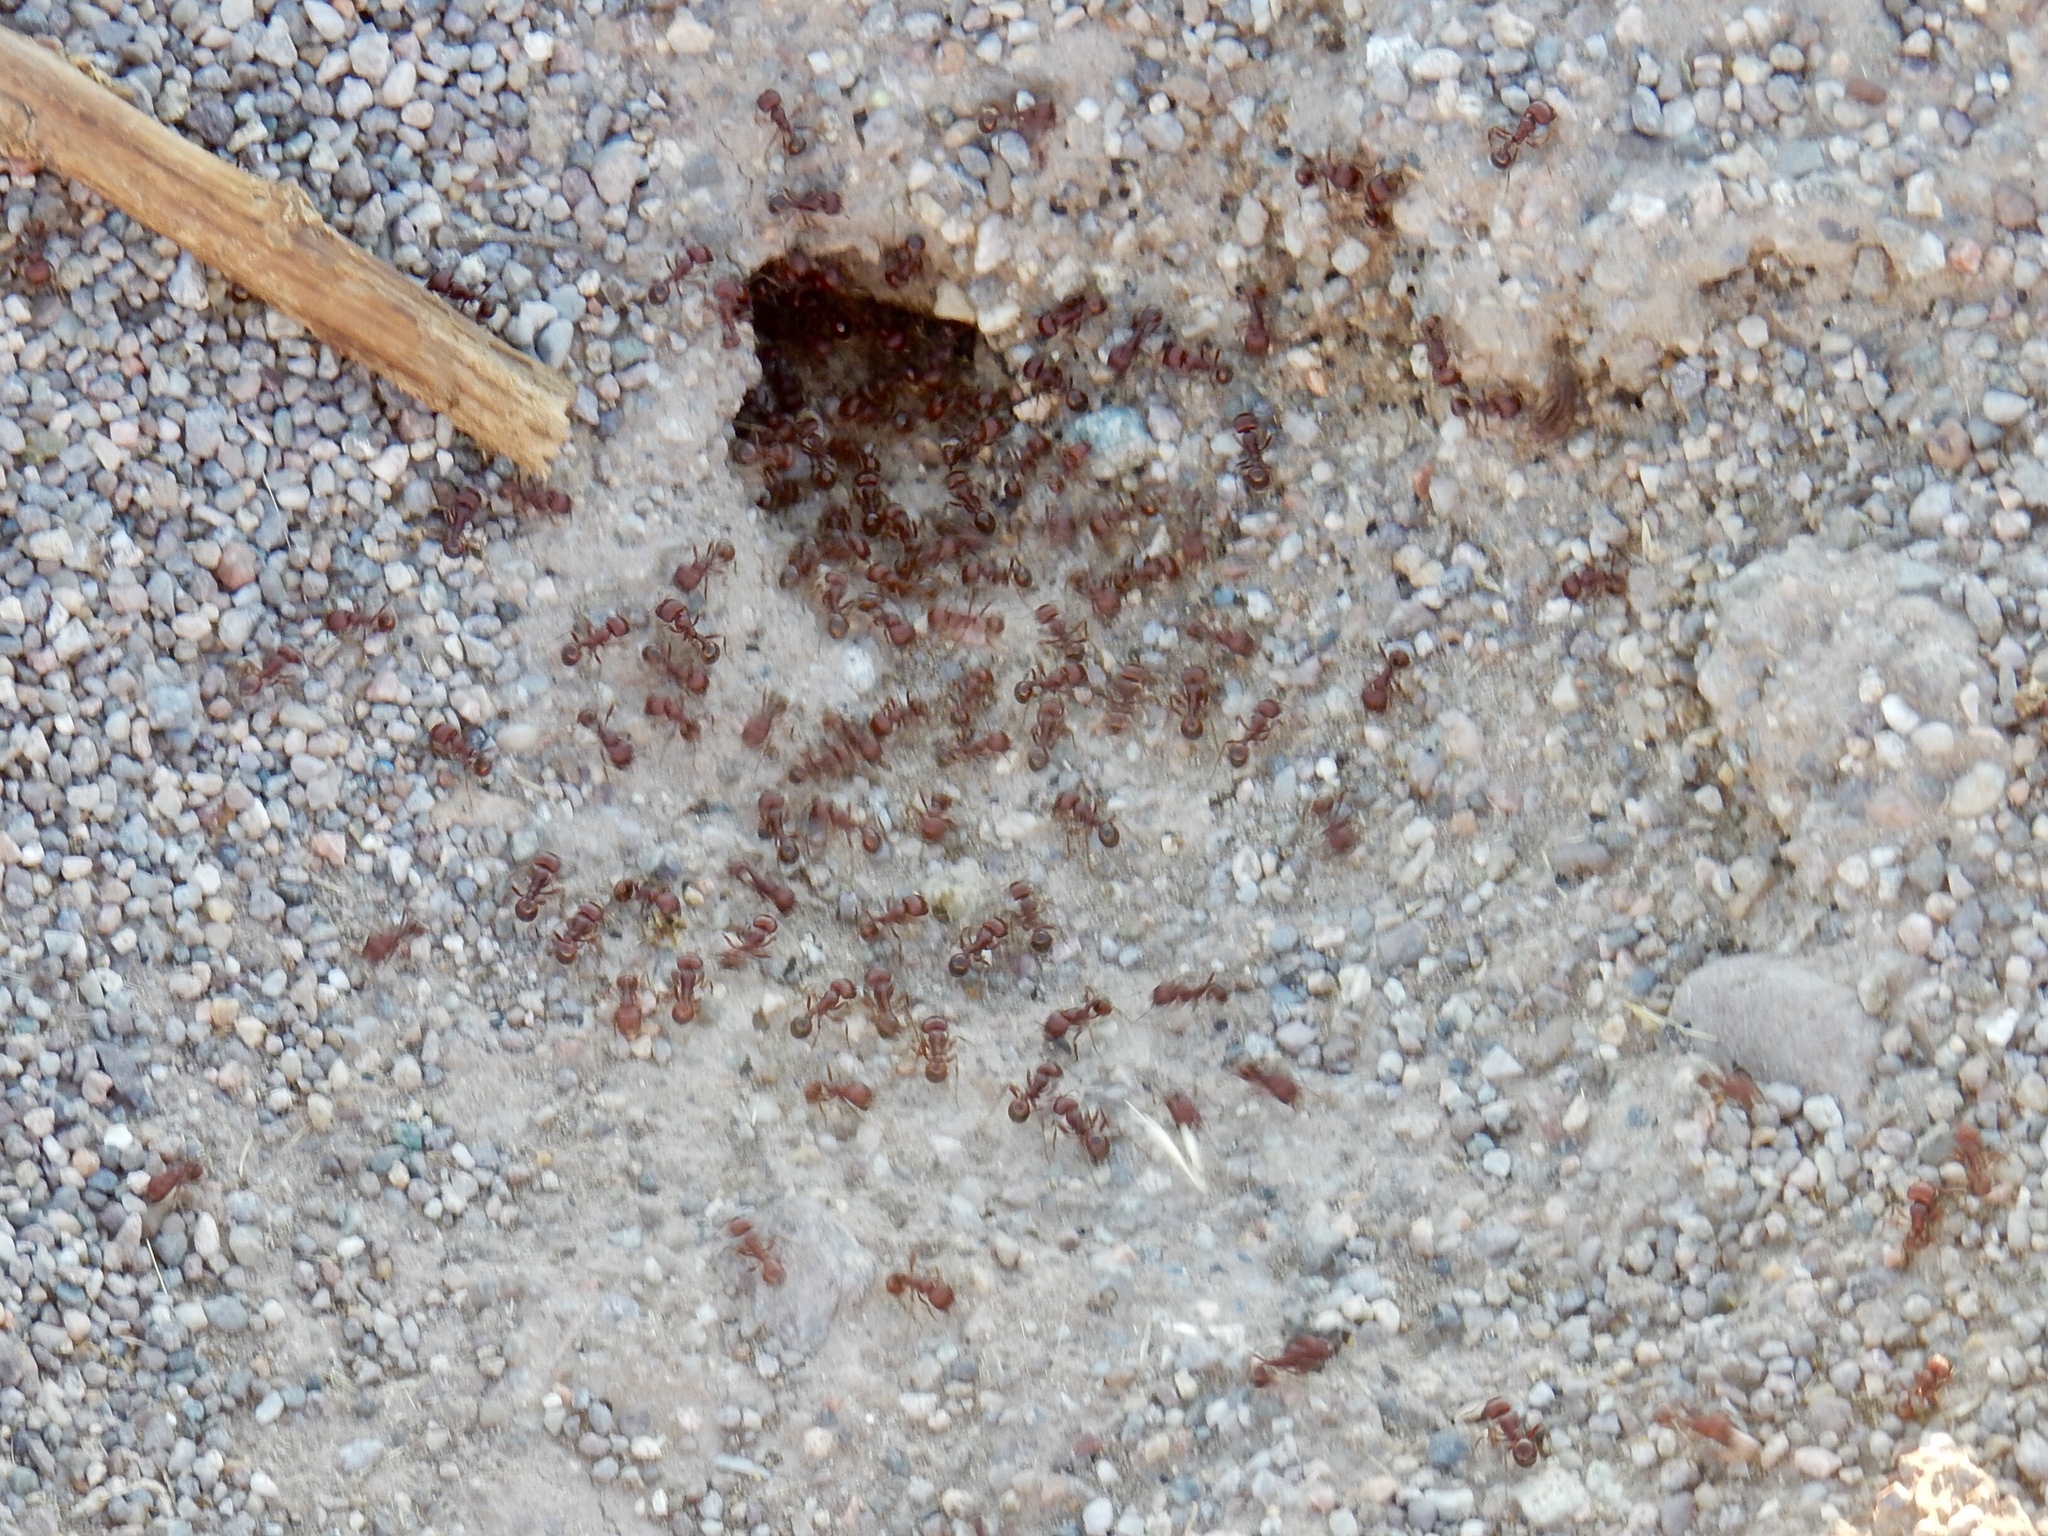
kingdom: Animalia
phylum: Arthropoda
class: Insecta
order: Hymenoptera
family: Formicidae
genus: Pogonomyrmex
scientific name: Pogonomyrmex barbatus
